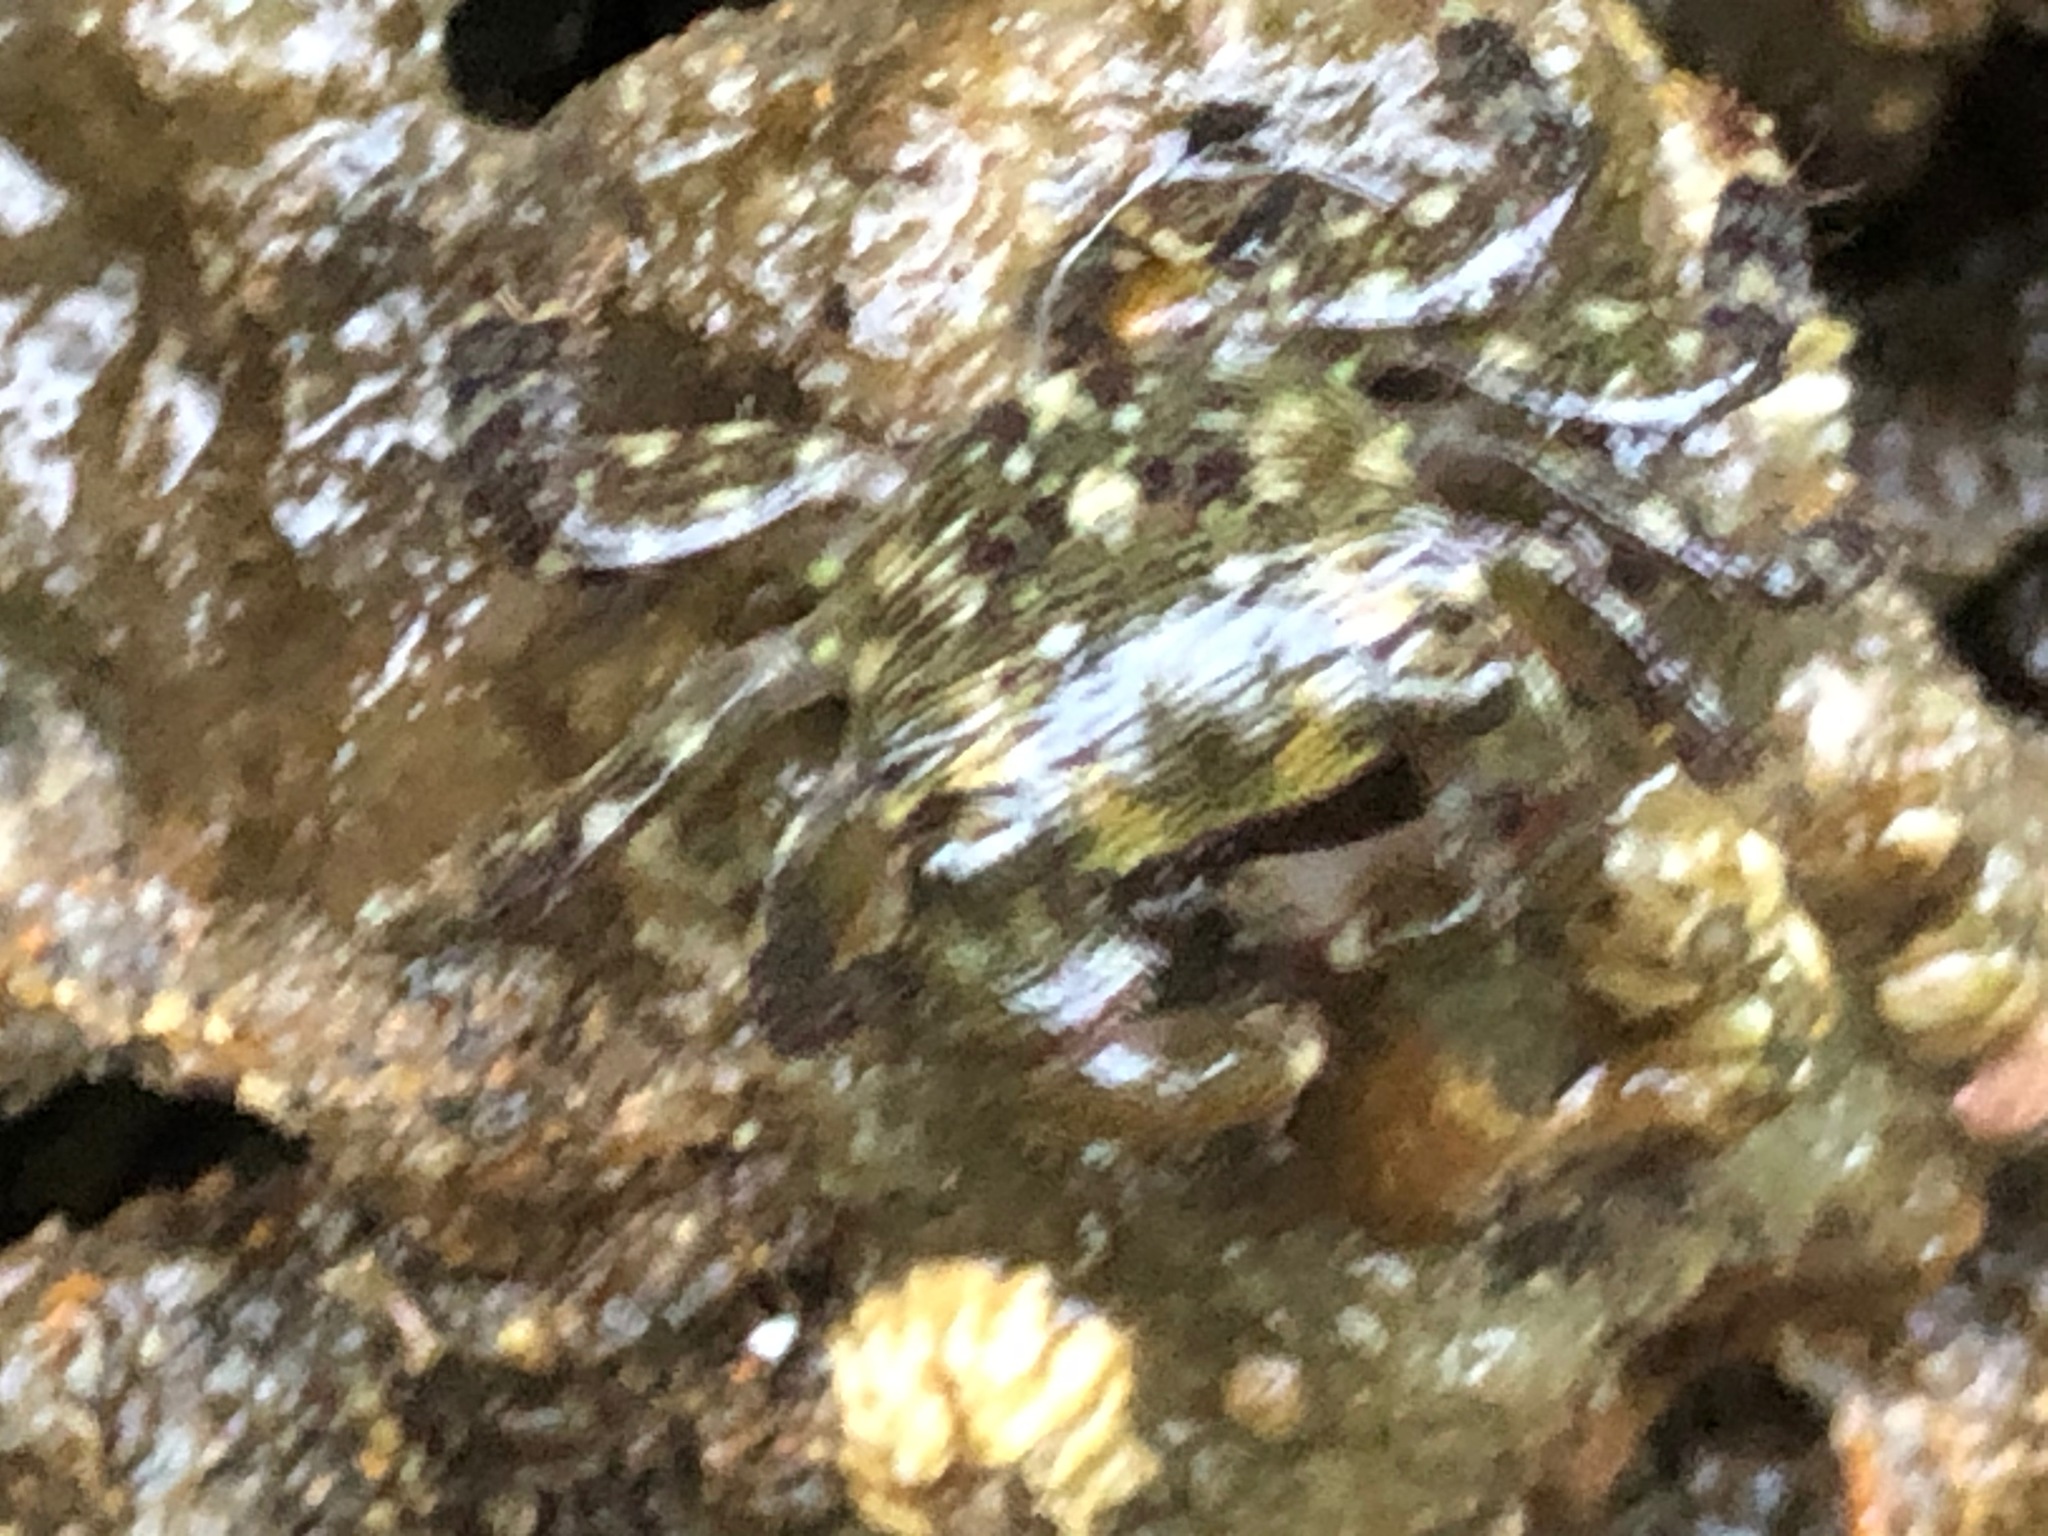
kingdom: Animalia
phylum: Arthropoda
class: Malacostraca
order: Decapoda
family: Grapsidae
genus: Pachygrapsus
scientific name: Pachygrapsus crassipes
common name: Striped shore crab
